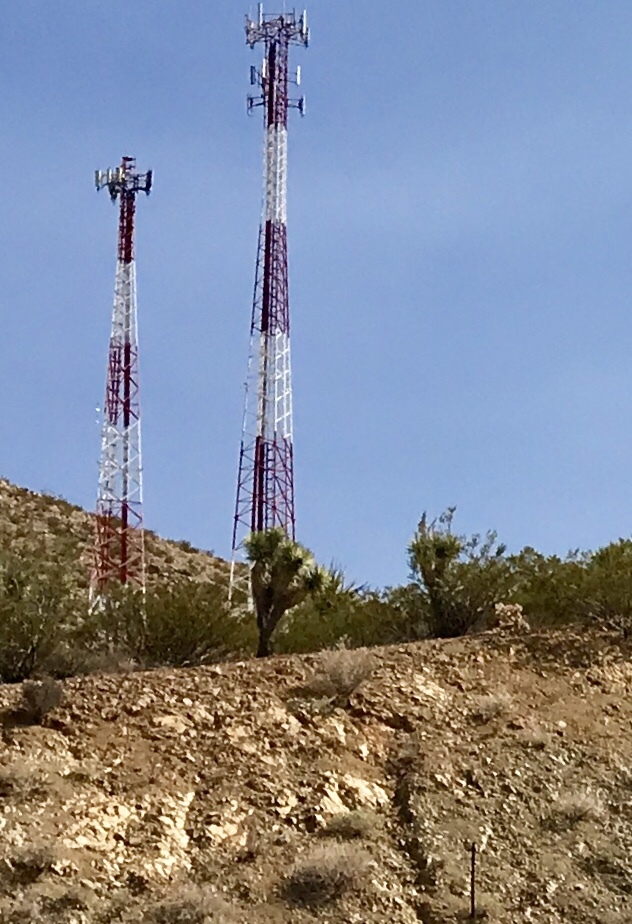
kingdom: Plantae
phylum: Tracheophyta
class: Liliopsida
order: Asparagales
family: Asparagaceae
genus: Yucca
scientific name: Yucca brevifolia
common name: Joshua tree
